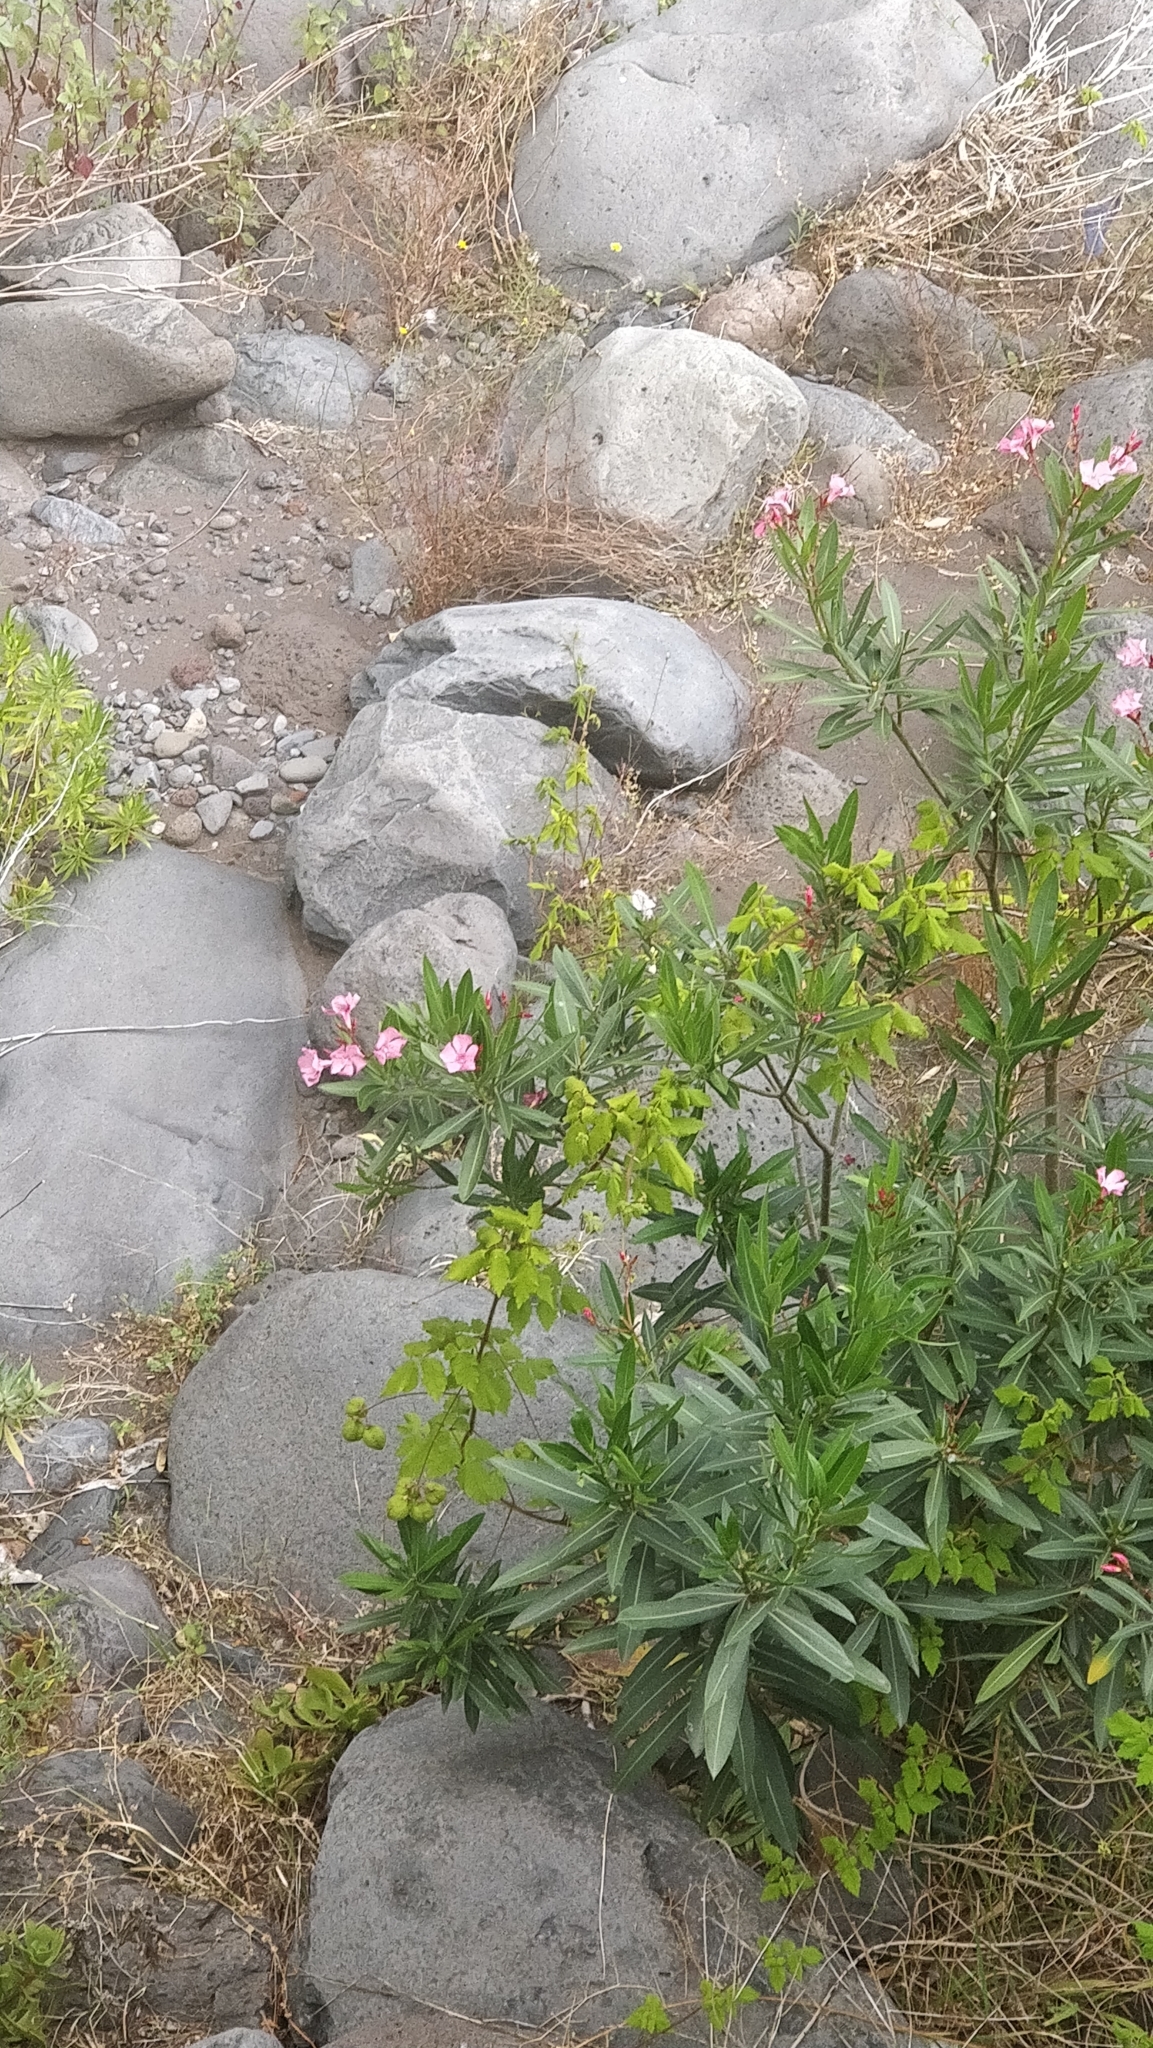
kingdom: Plantae
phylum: Tracheophyta
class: Magnoliopsida
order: Gentianales
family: Apocynaceae
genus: Nerium
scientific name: Nerium oleander
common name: Oleander
